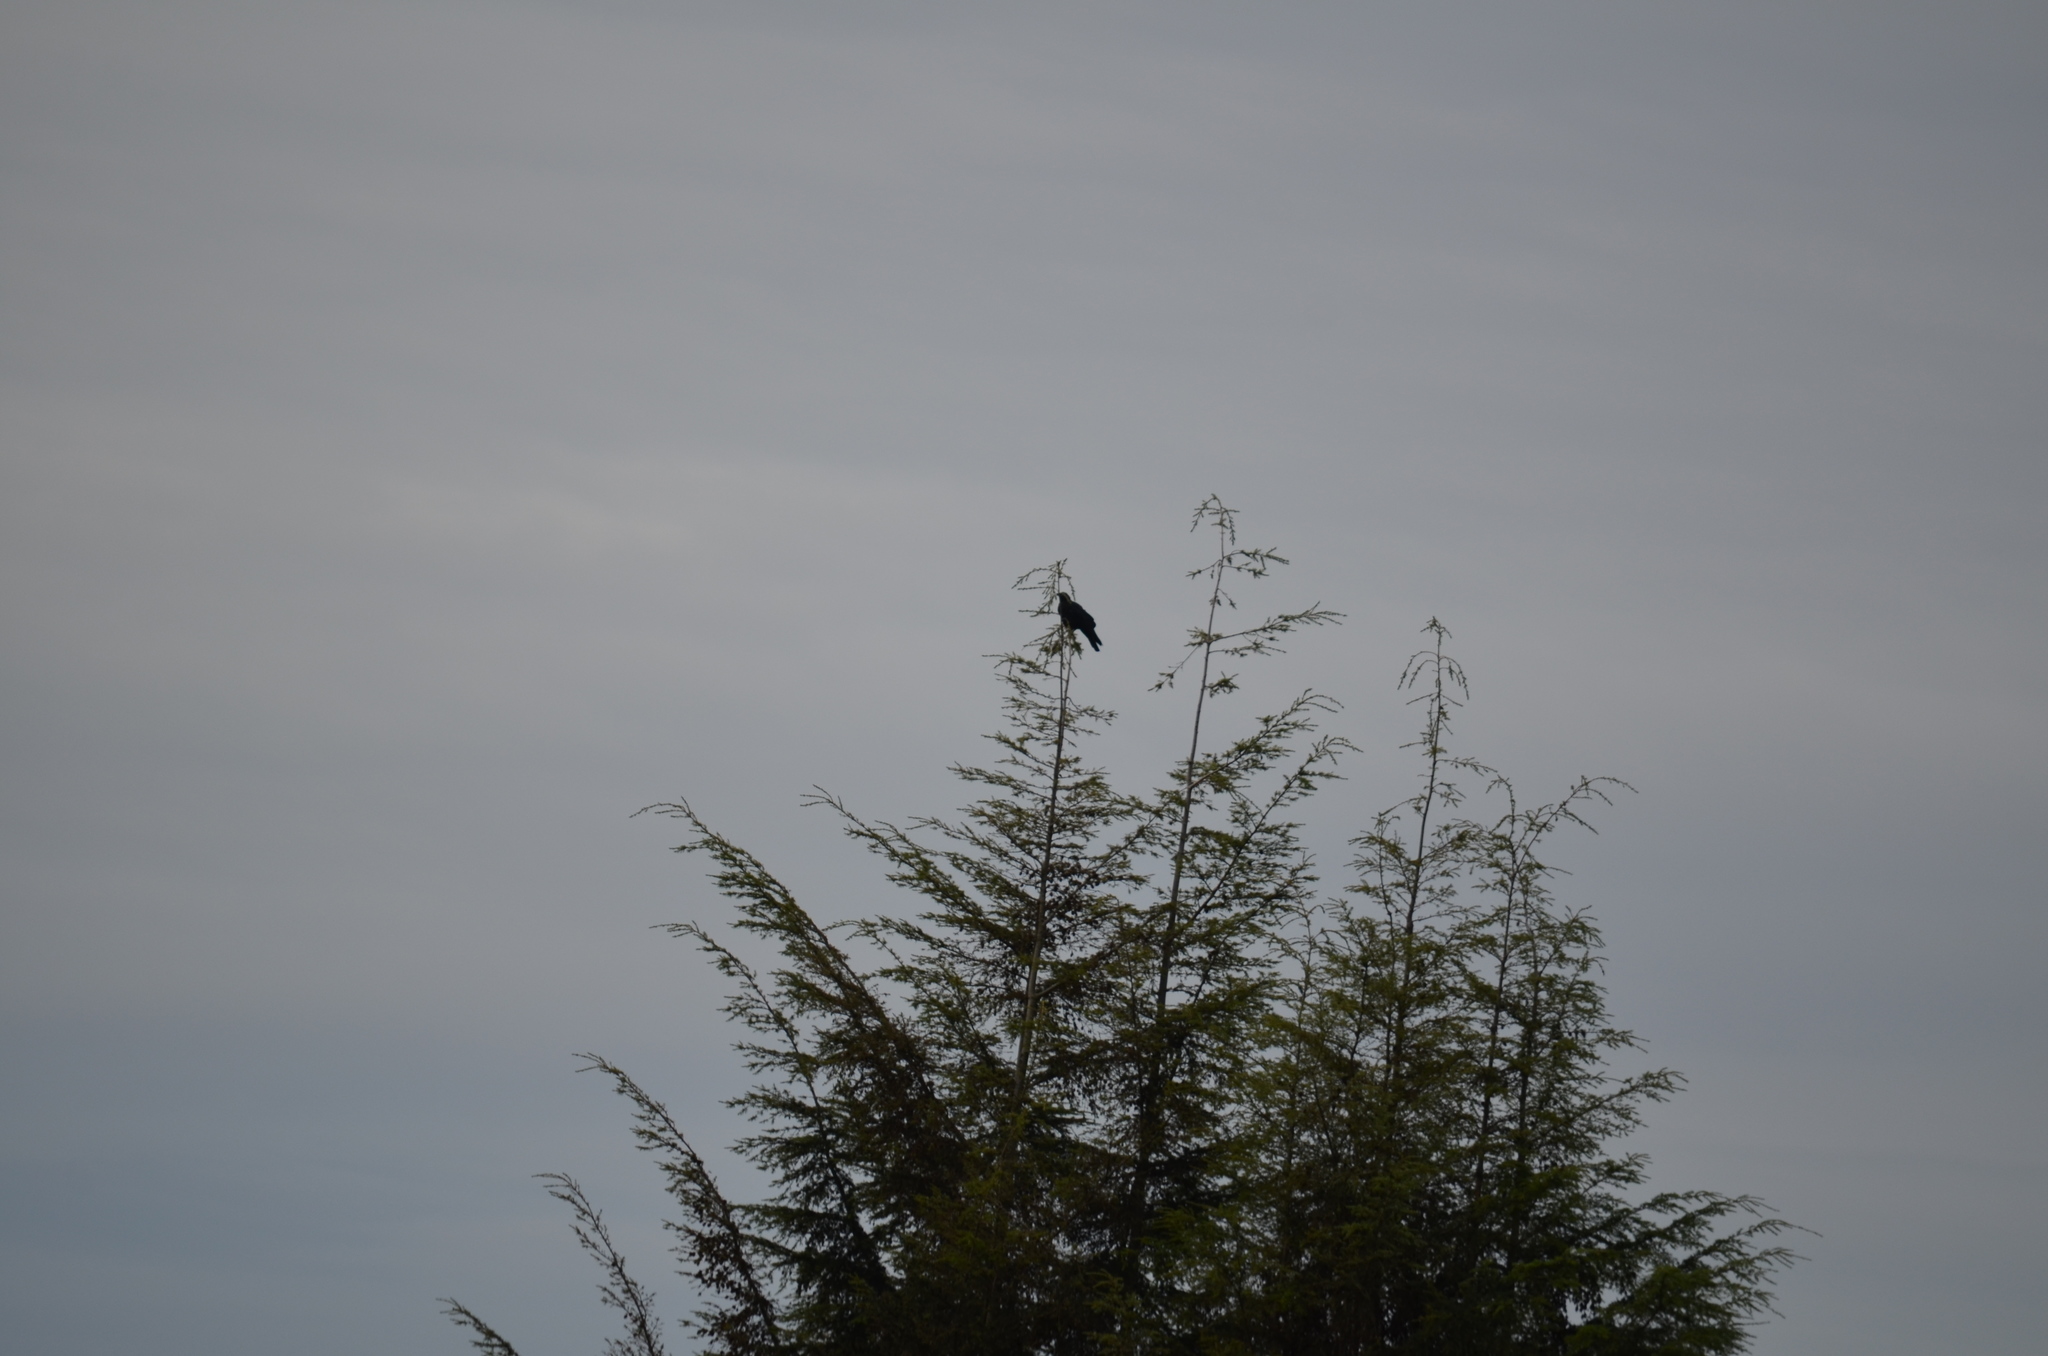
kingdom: Animalia
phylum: Chordata
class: Aves
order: Passeriformes
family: Corvidae
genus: Cyanocitta
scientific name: Cyanocitta stelleri
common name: Steller's jay
